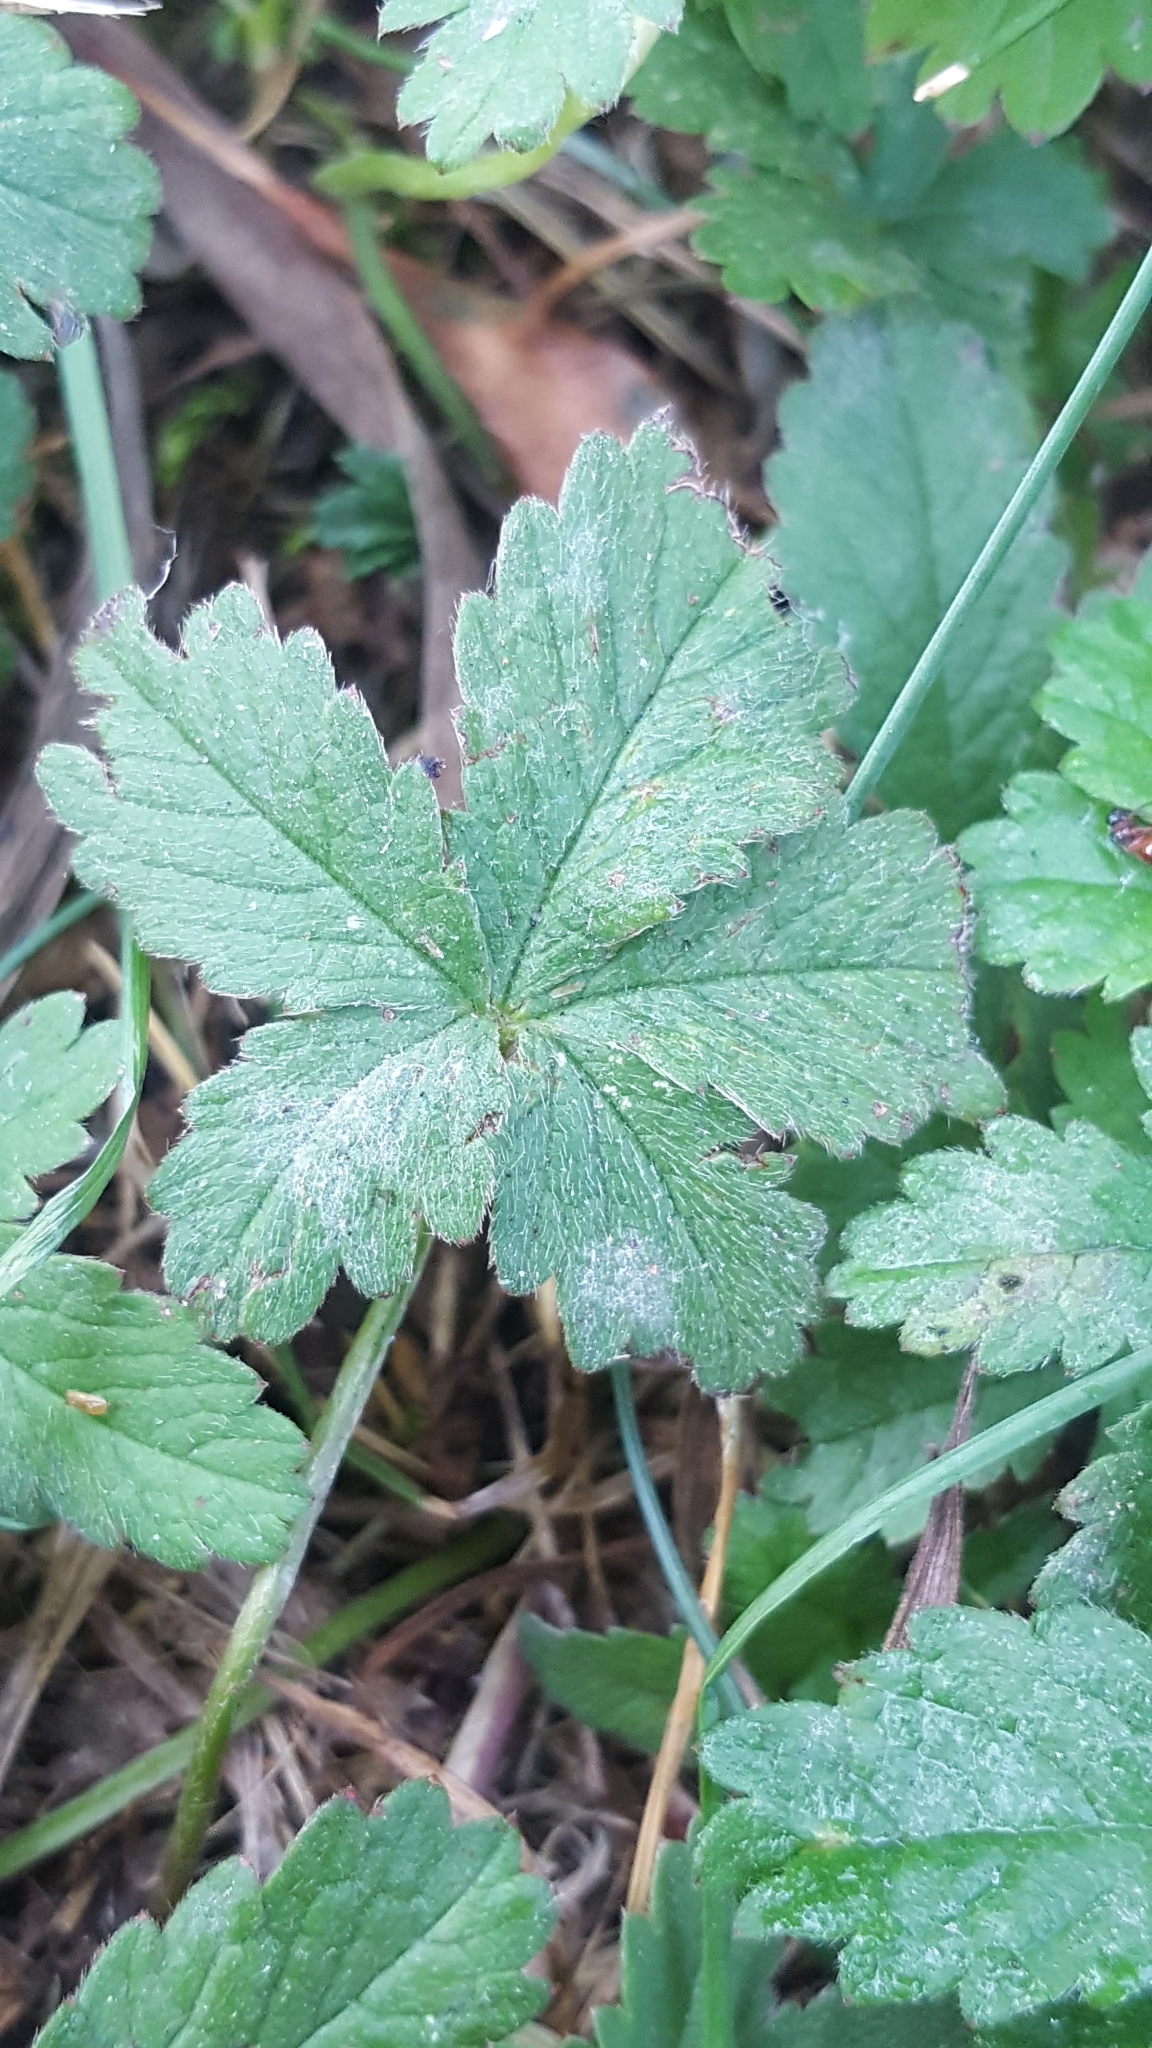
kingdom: Fungi
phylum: Ascomycota
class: Leotiomycetes
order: Helotiales
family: Erysiphaceae
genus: Podosphaera
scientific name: Podosphaera aphanis
